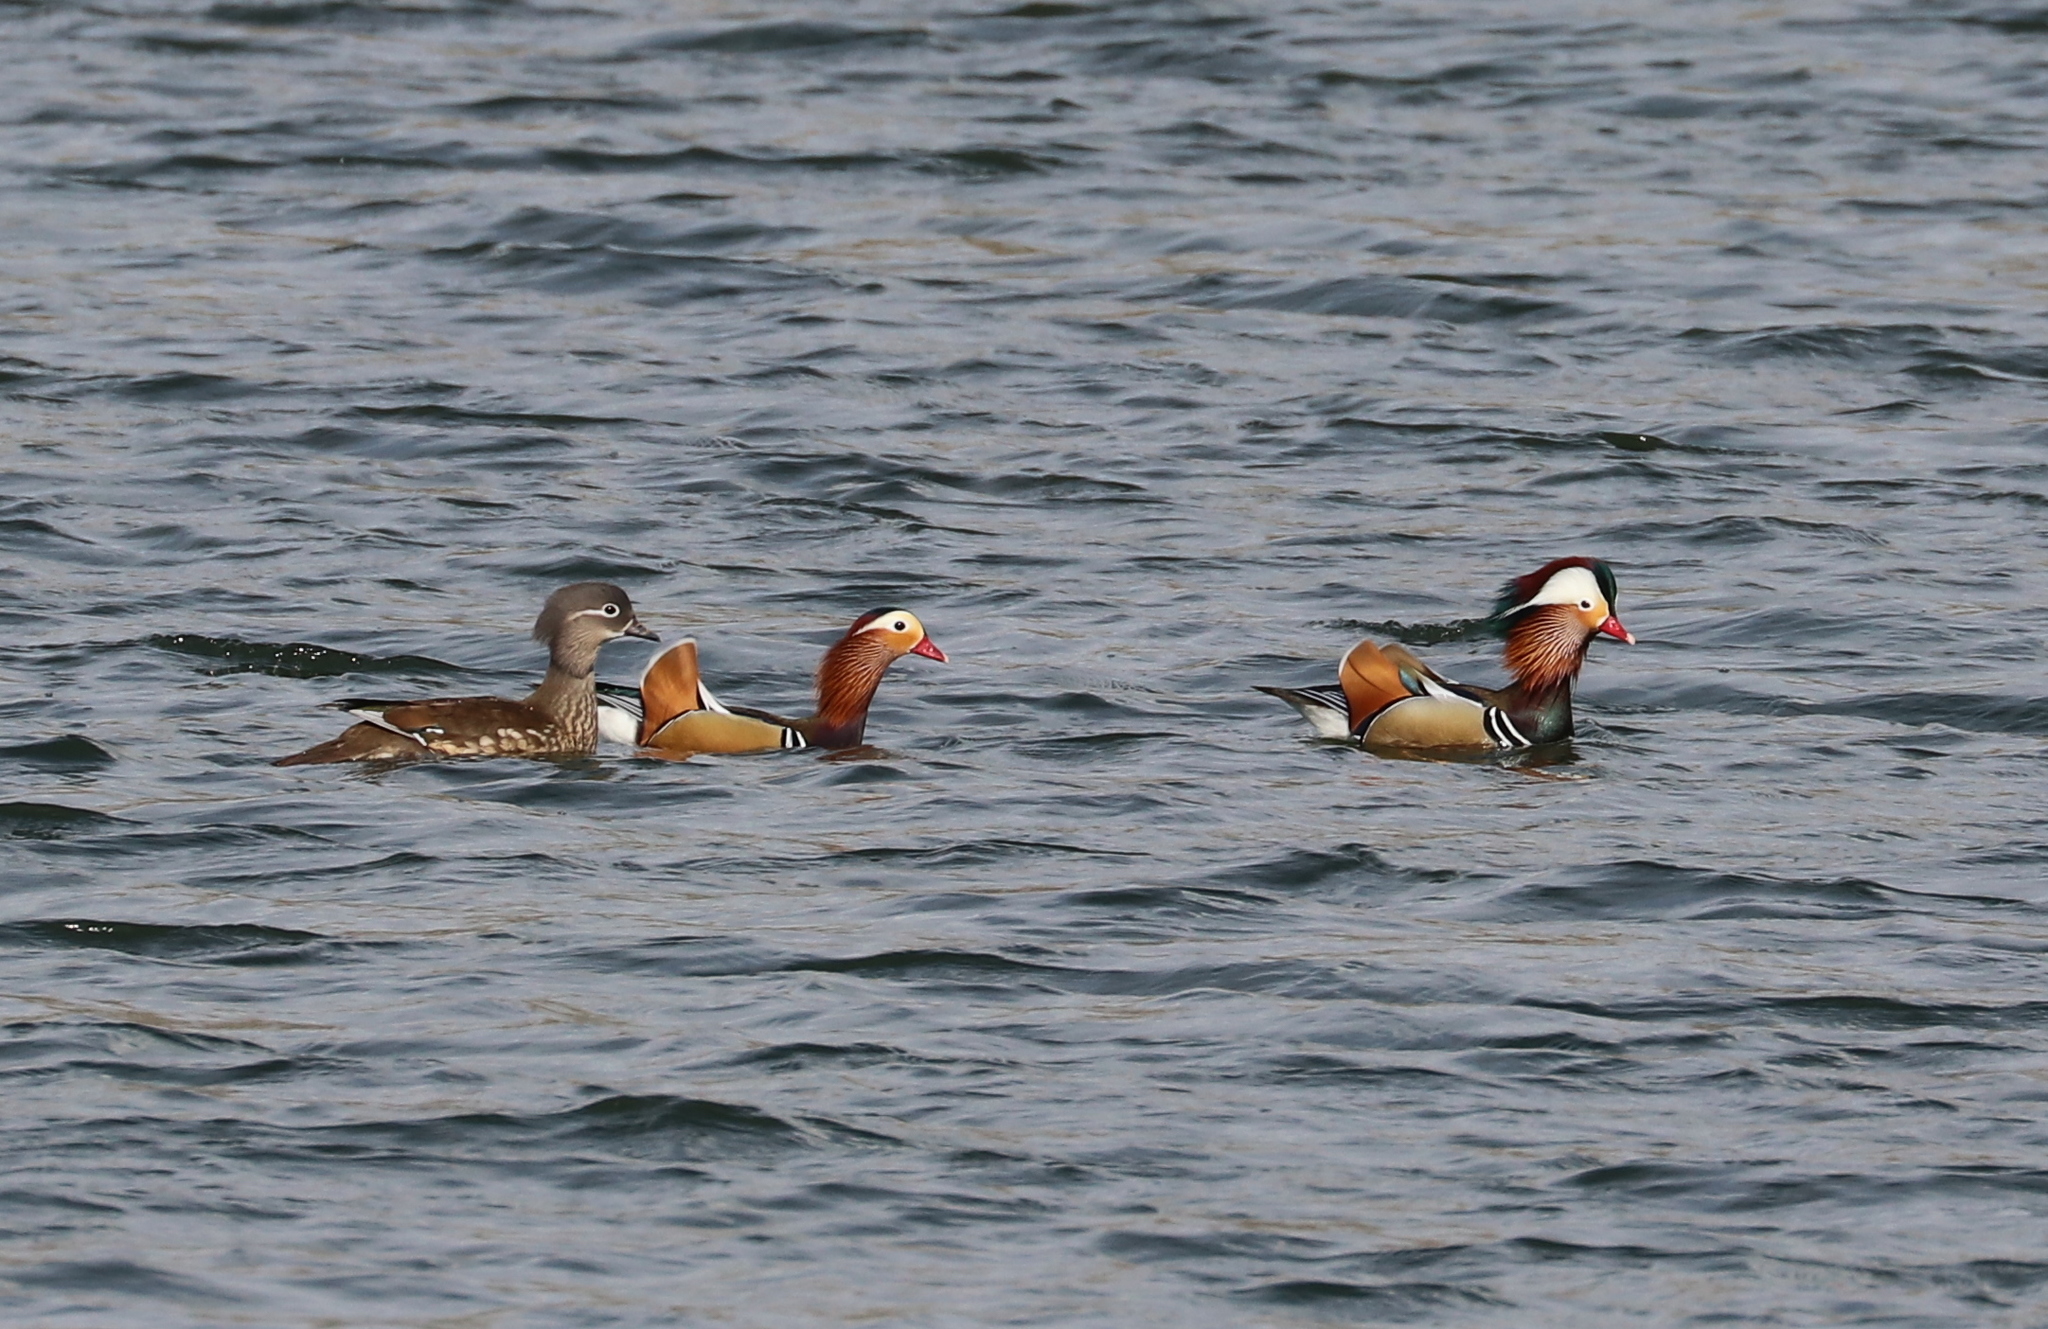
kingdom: Animalia
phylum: Chordata
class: Aves
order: Anseriformes
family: Anatidae
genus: Aix
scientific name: Aix galericulata
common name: Mandarin duck
